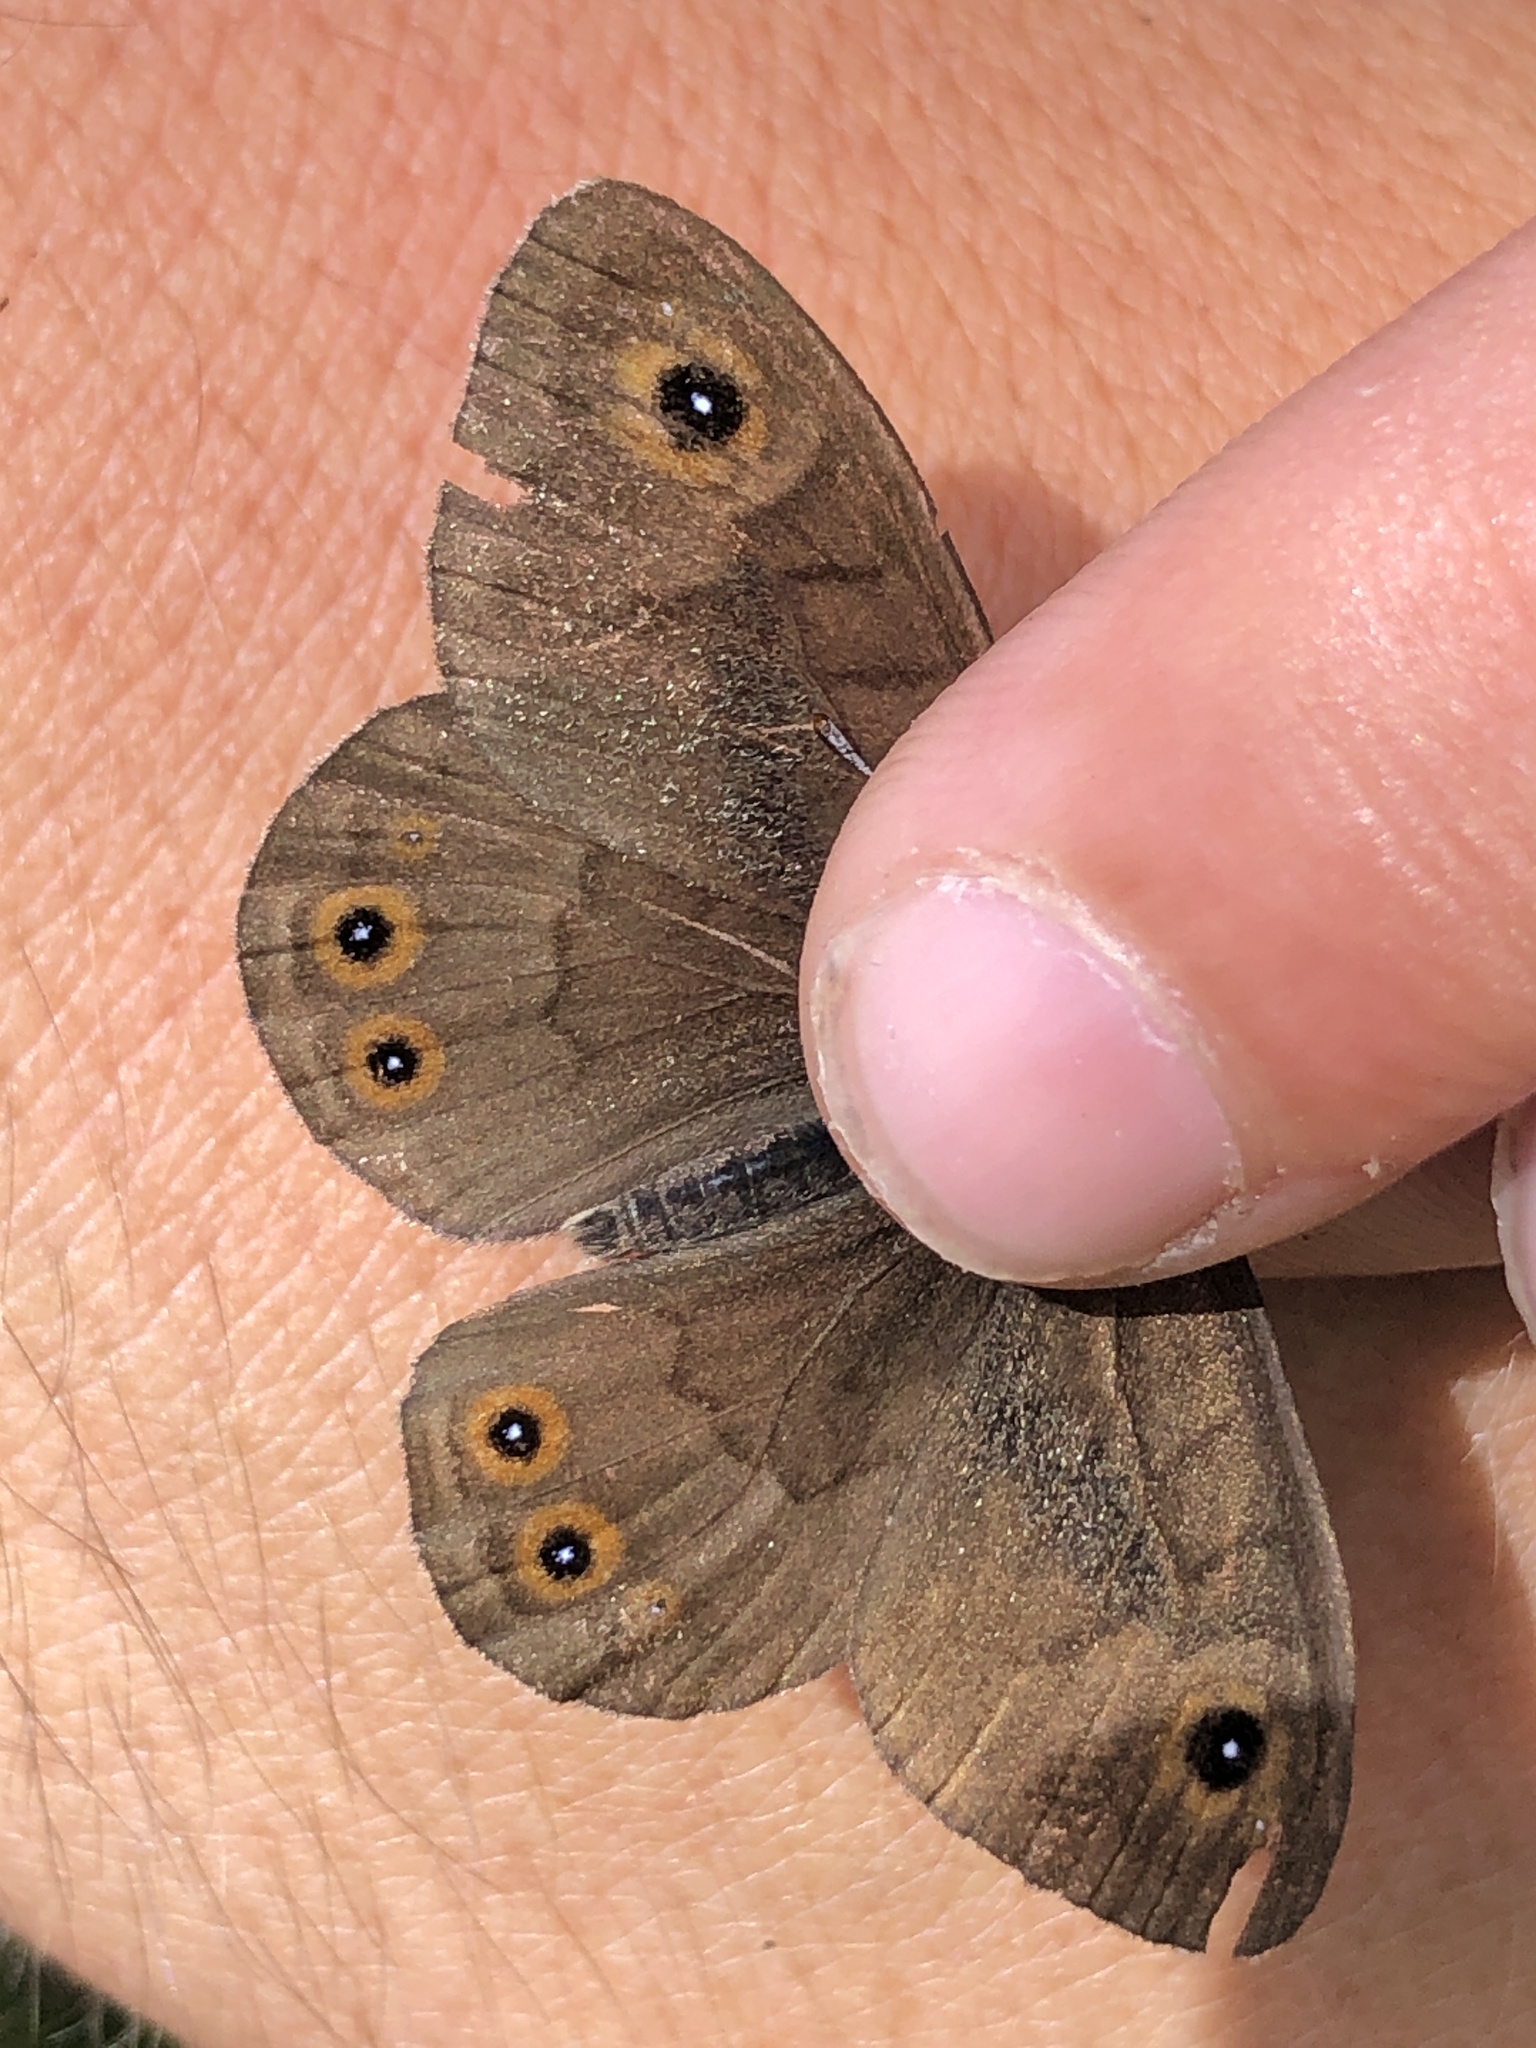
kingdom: Animalia
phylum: Arthropoda
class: Insecta
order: Lepidoptera
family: Nymphalidae
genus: Pararge
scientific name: Pararge petropolitana
